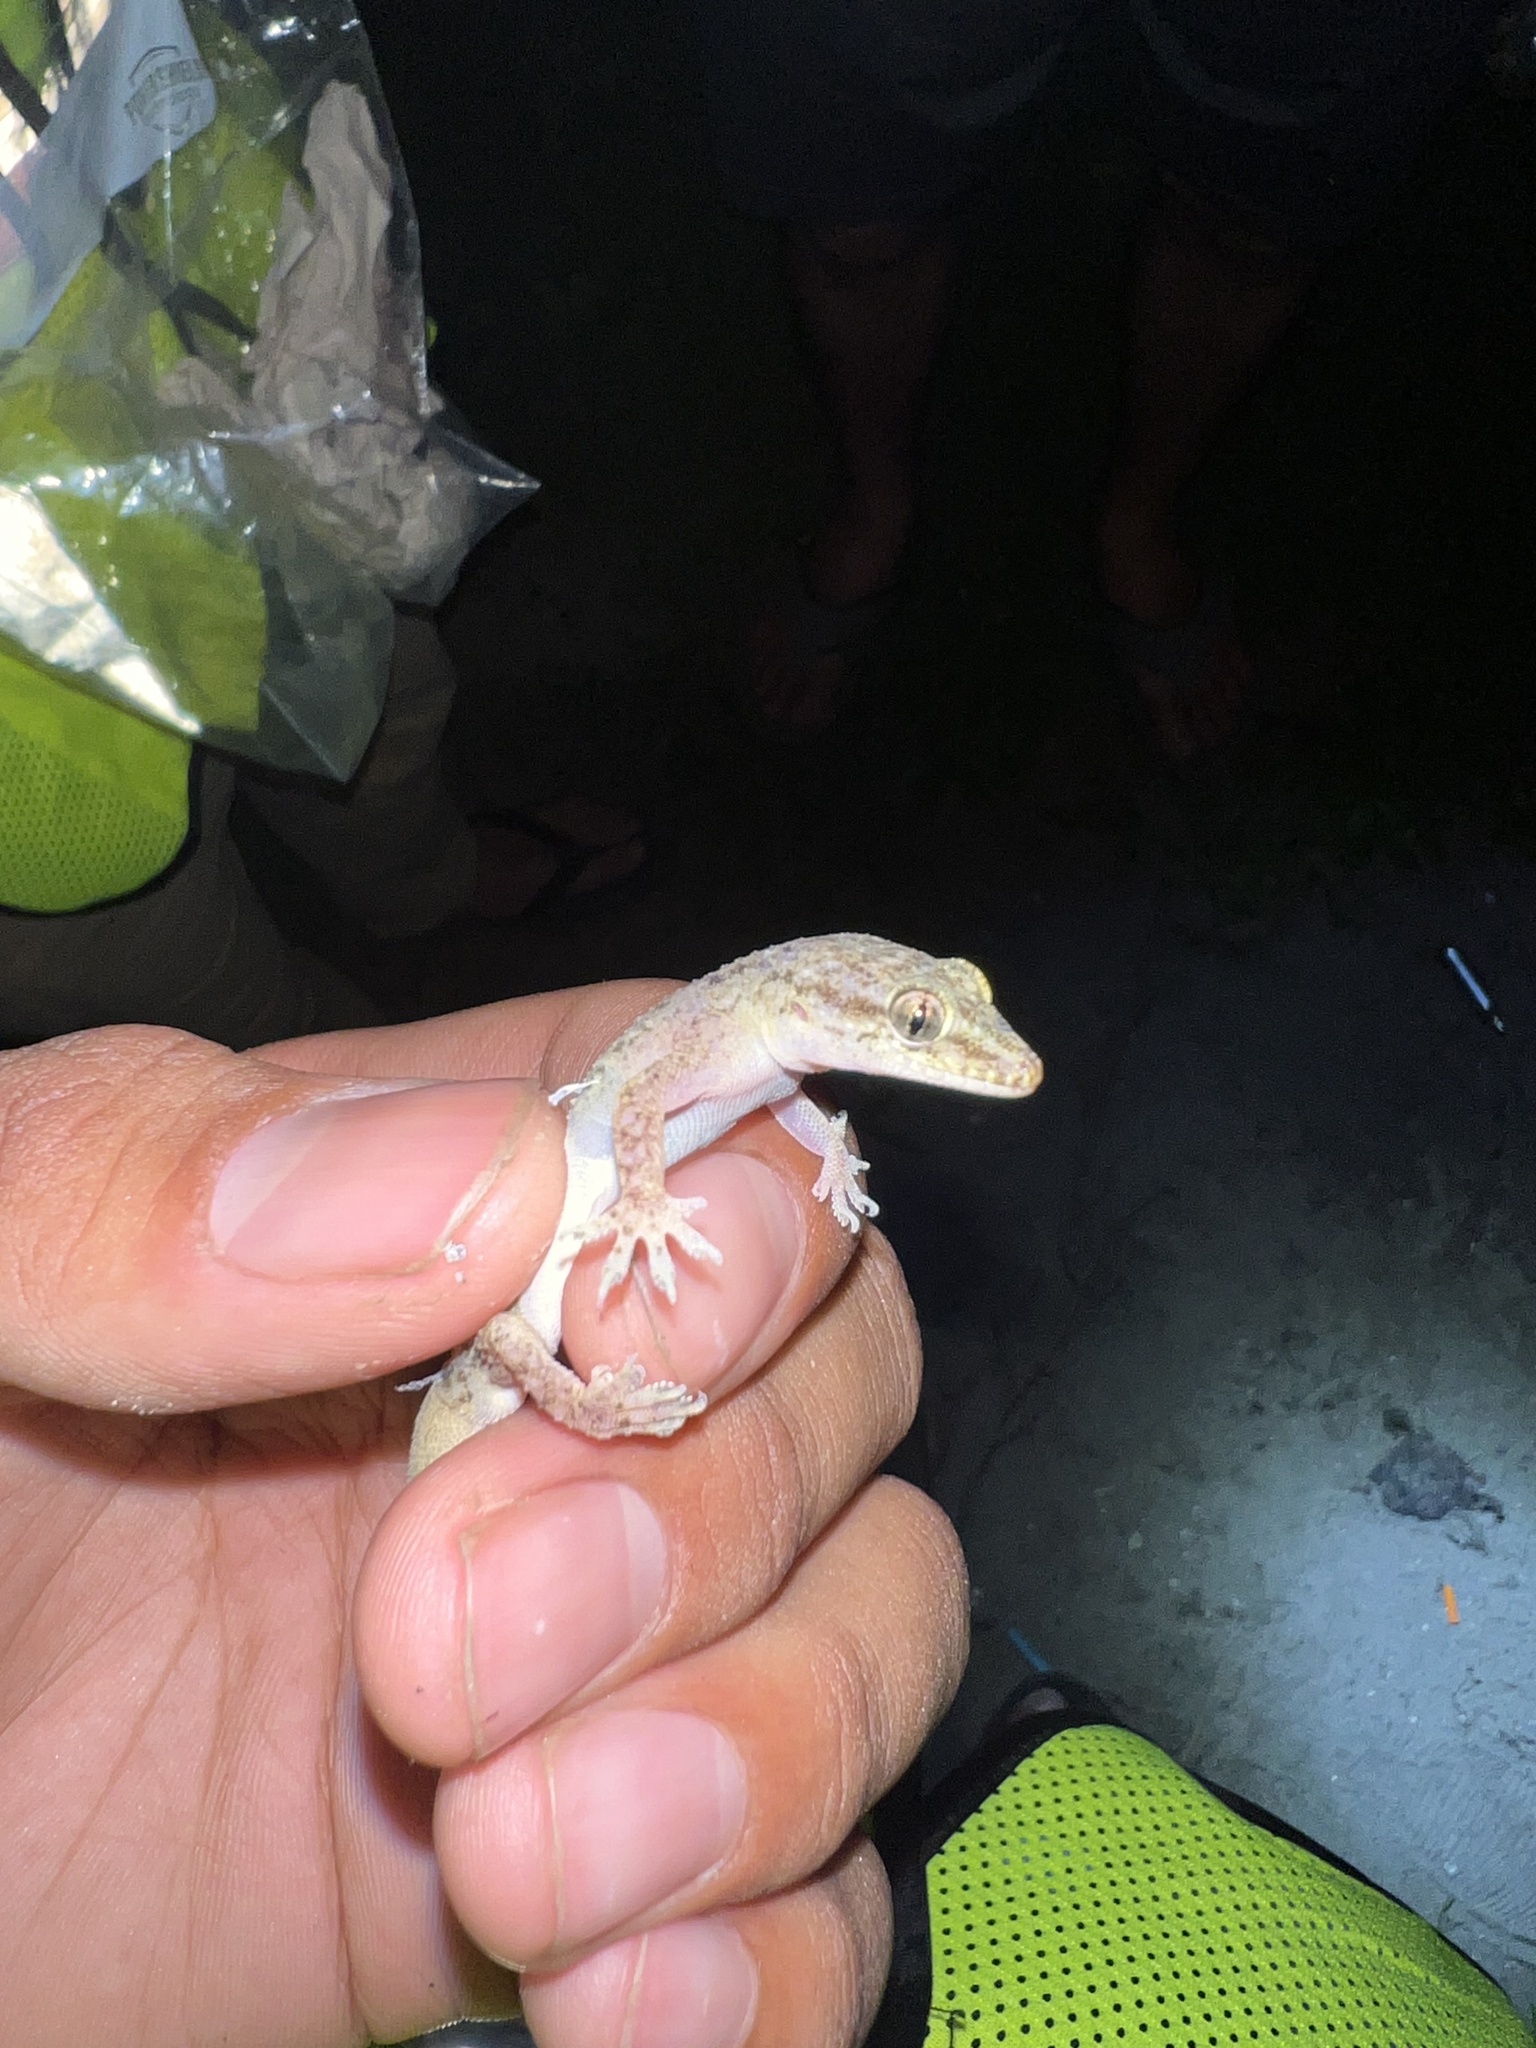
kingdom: Animalia
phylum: Chordata
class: Squamata
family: Gekkonidae
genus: Hemidactylus
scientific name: Hemidactylus parvimaculatus
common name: Spotted house gecko
